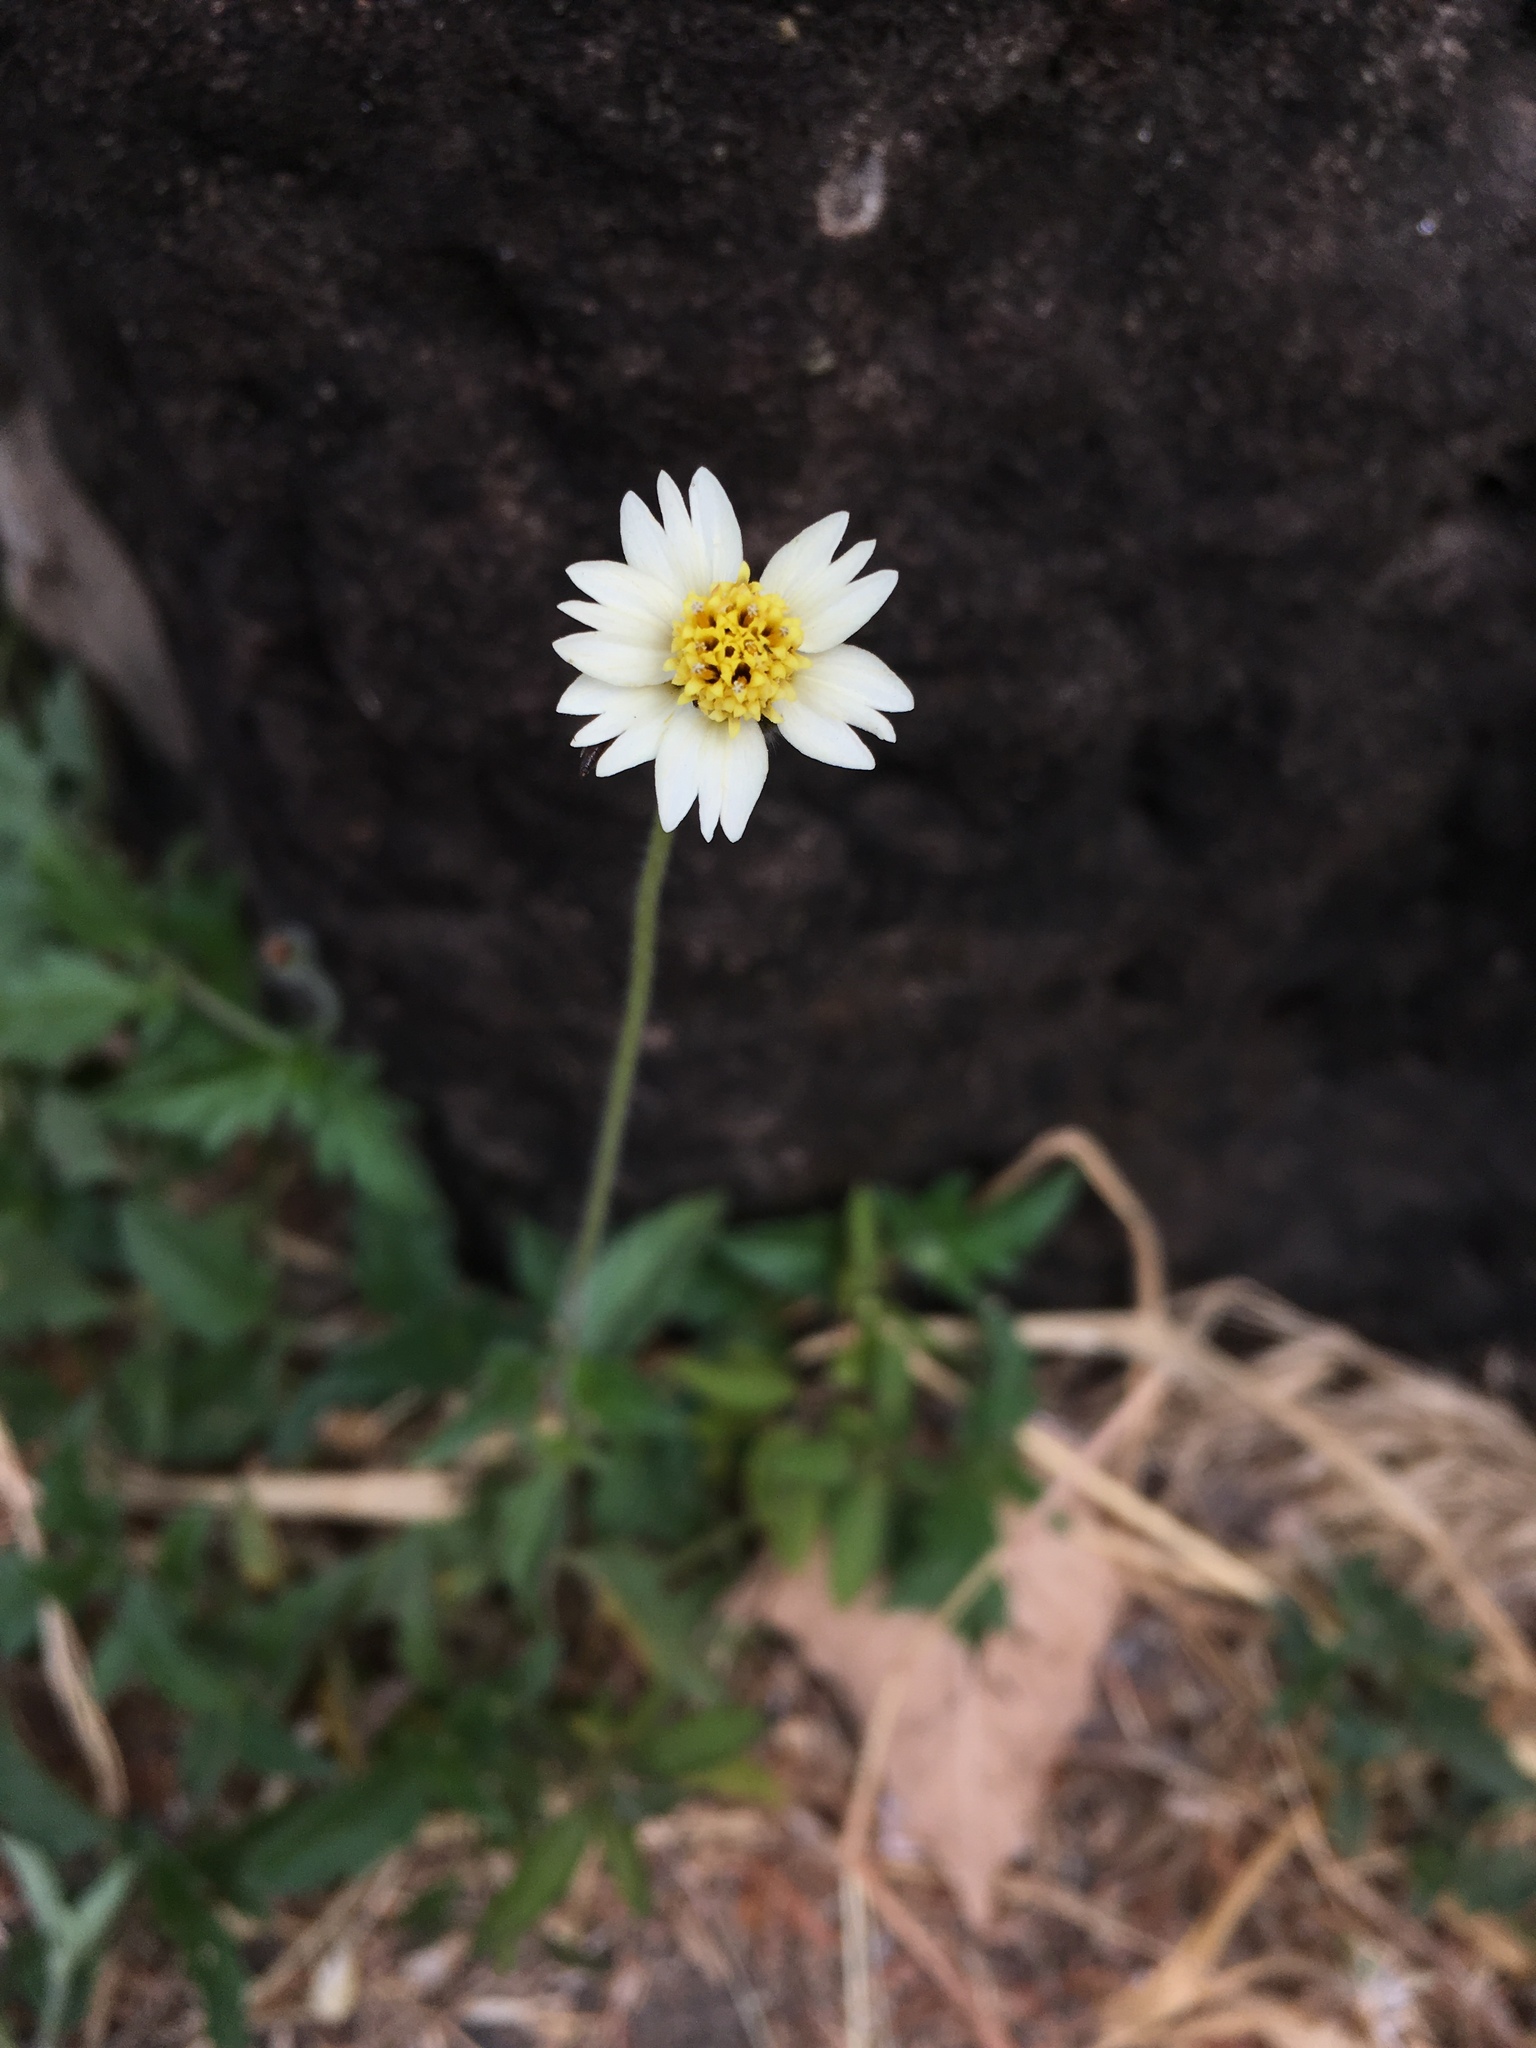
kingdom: Plantae
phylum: Tracheophyta
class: Magnoliopsida
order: Asterales
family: Asteraceae
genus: Tridax
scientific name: Tridax procumbens
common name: Coatbuttons
